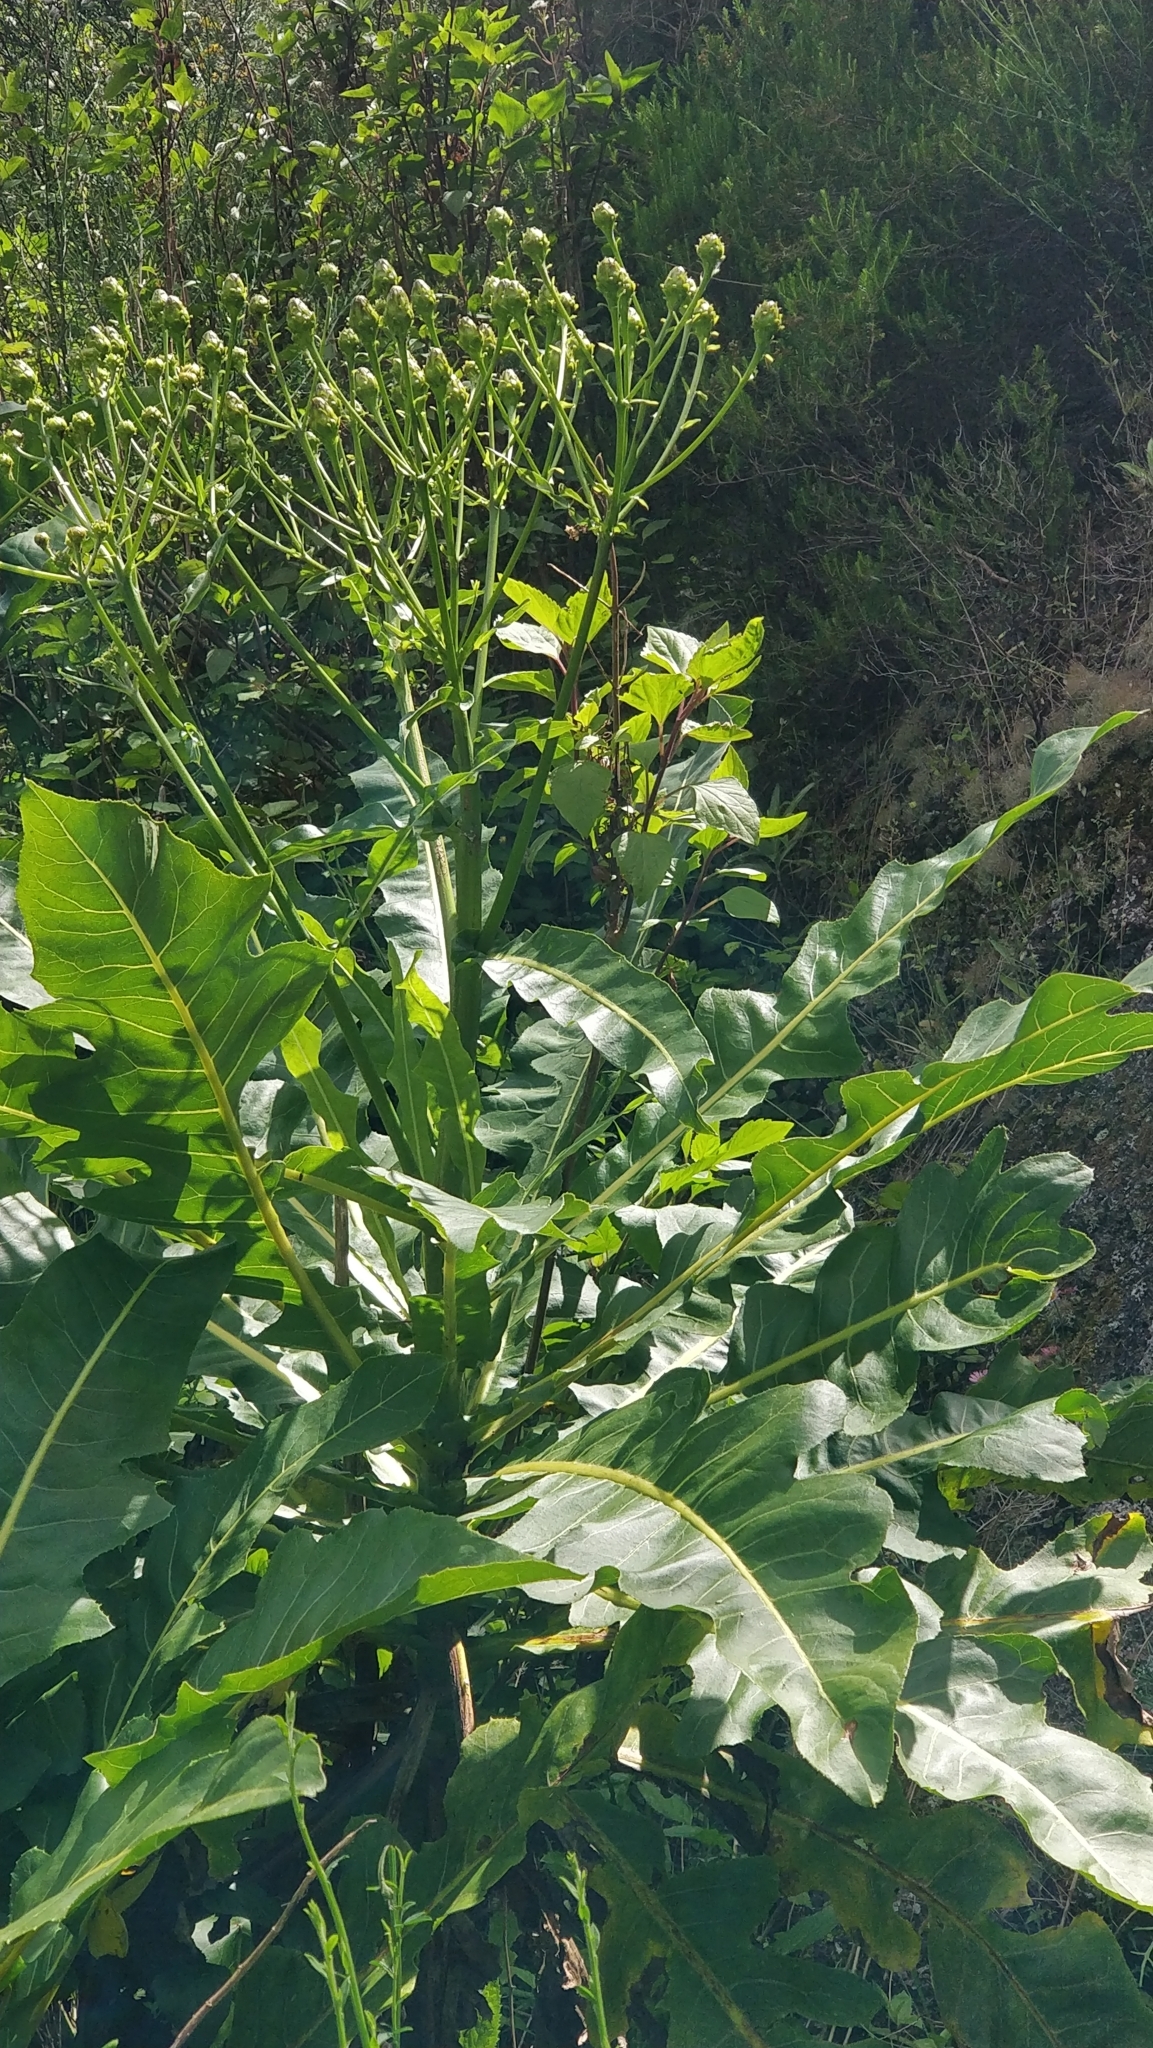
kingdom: Plantae
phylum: Tracheophyta
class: Magnoliopsida
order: Asterales
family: Asteraceae
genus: Sonchus
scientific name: Sonchus fruticosus
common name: Shrubby sow-thistle
